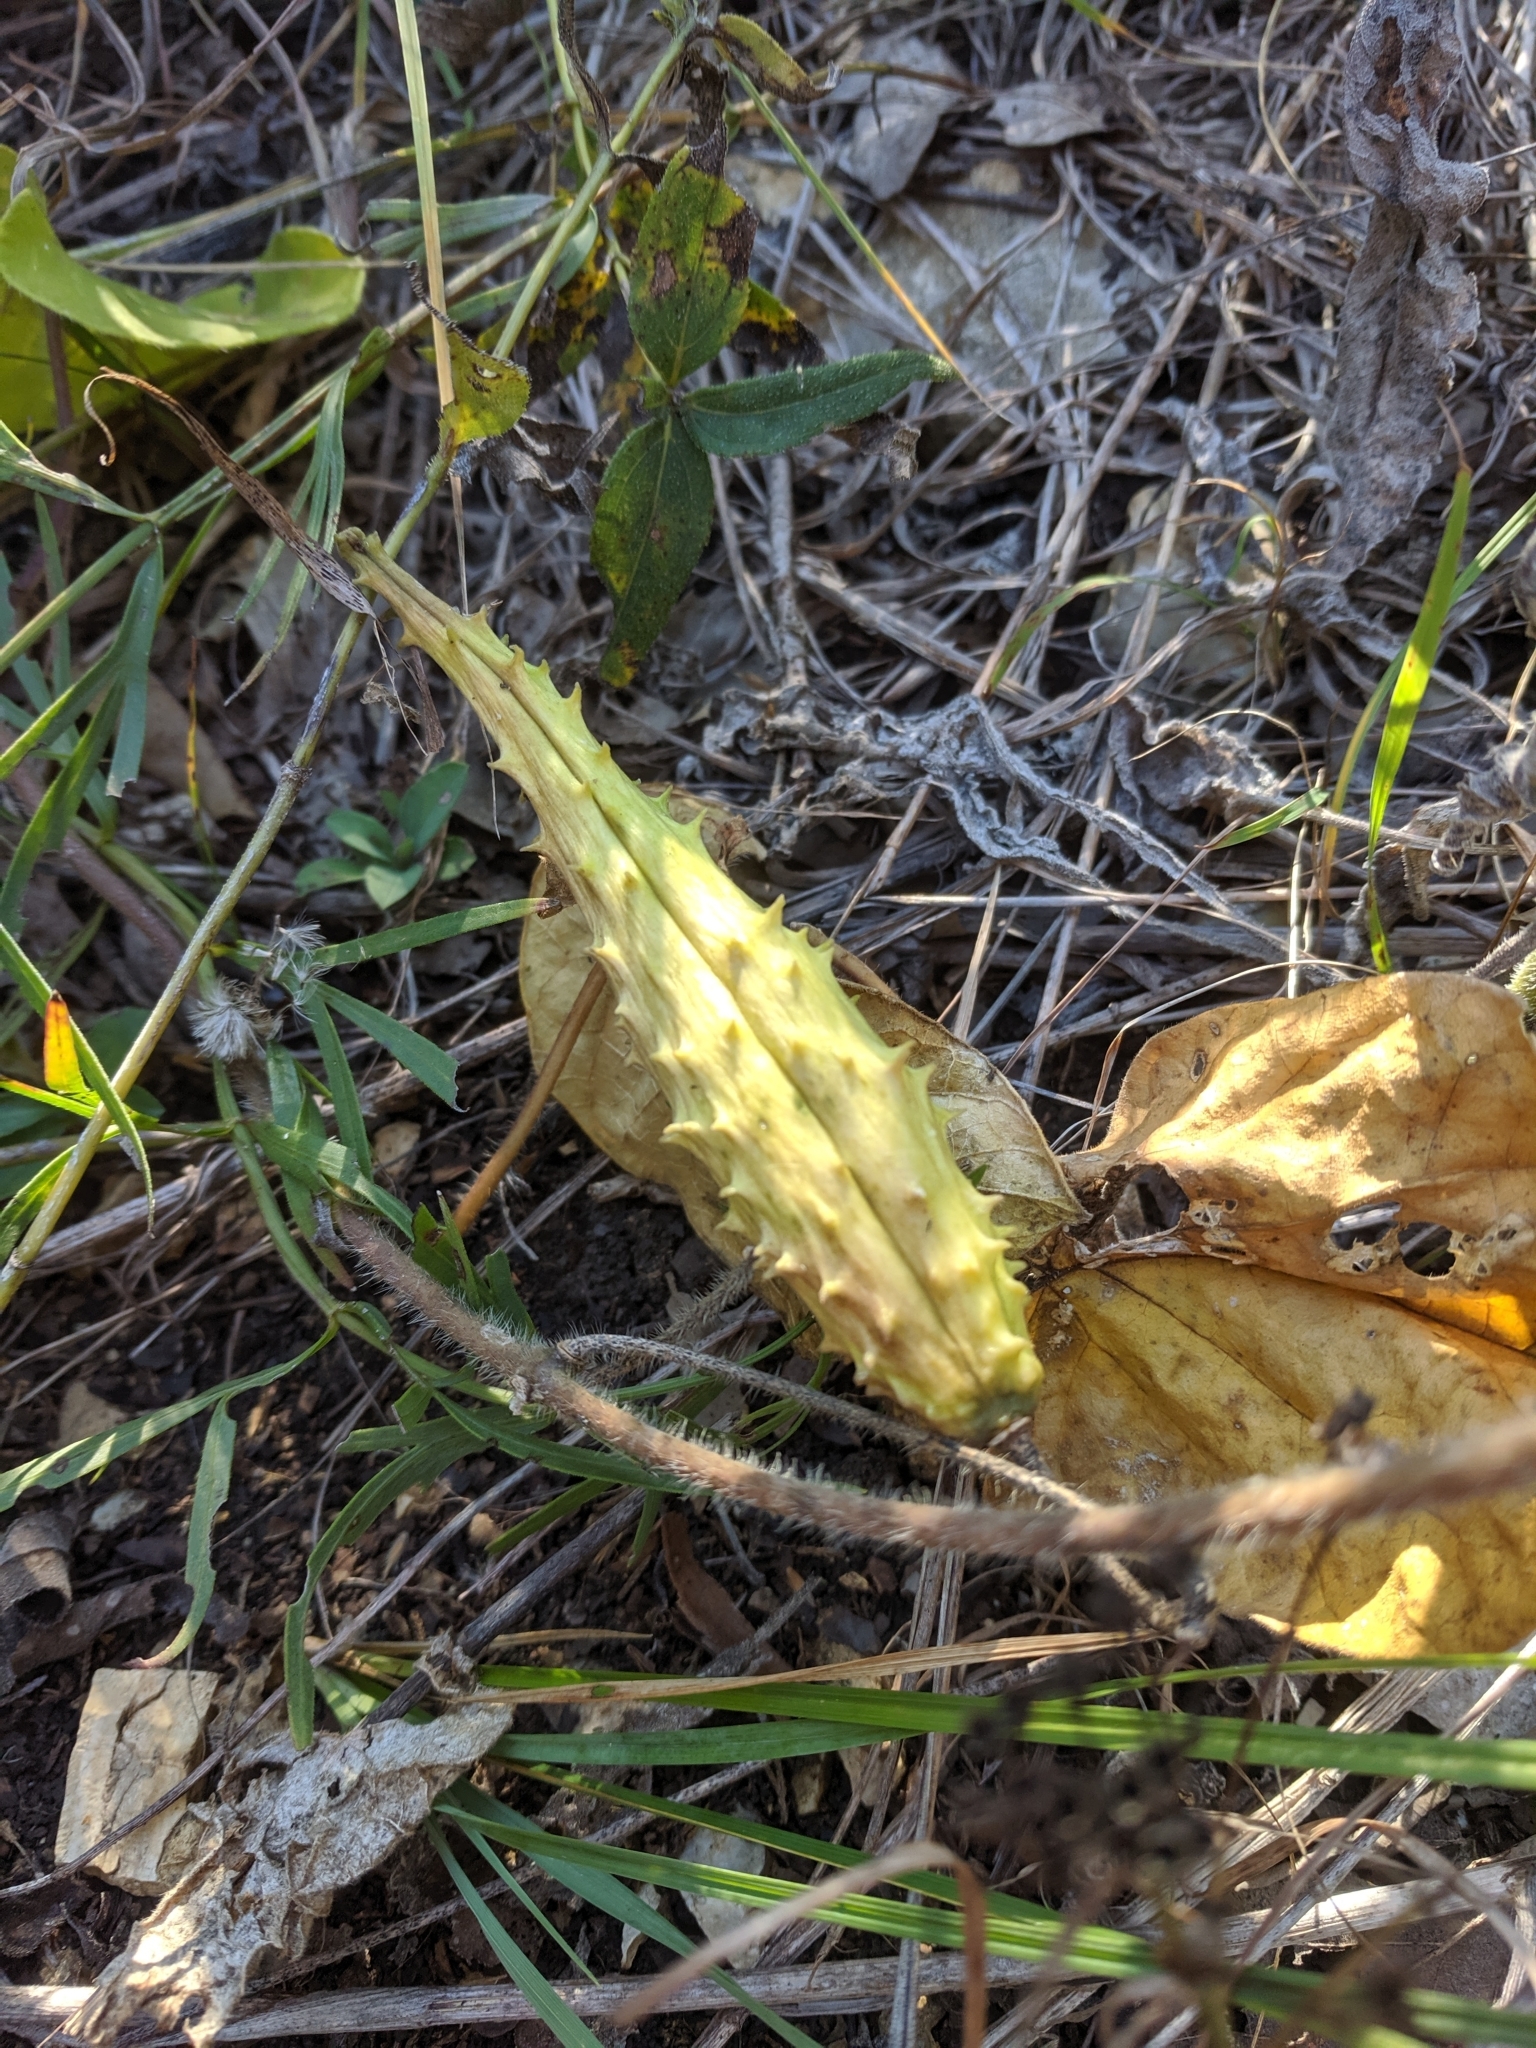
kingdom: Plantae
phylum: Tracheophyta
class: Magnoliopsida
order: Gentianales
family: Apocynaceae
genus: Matelea
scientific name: Matelea decipiens
